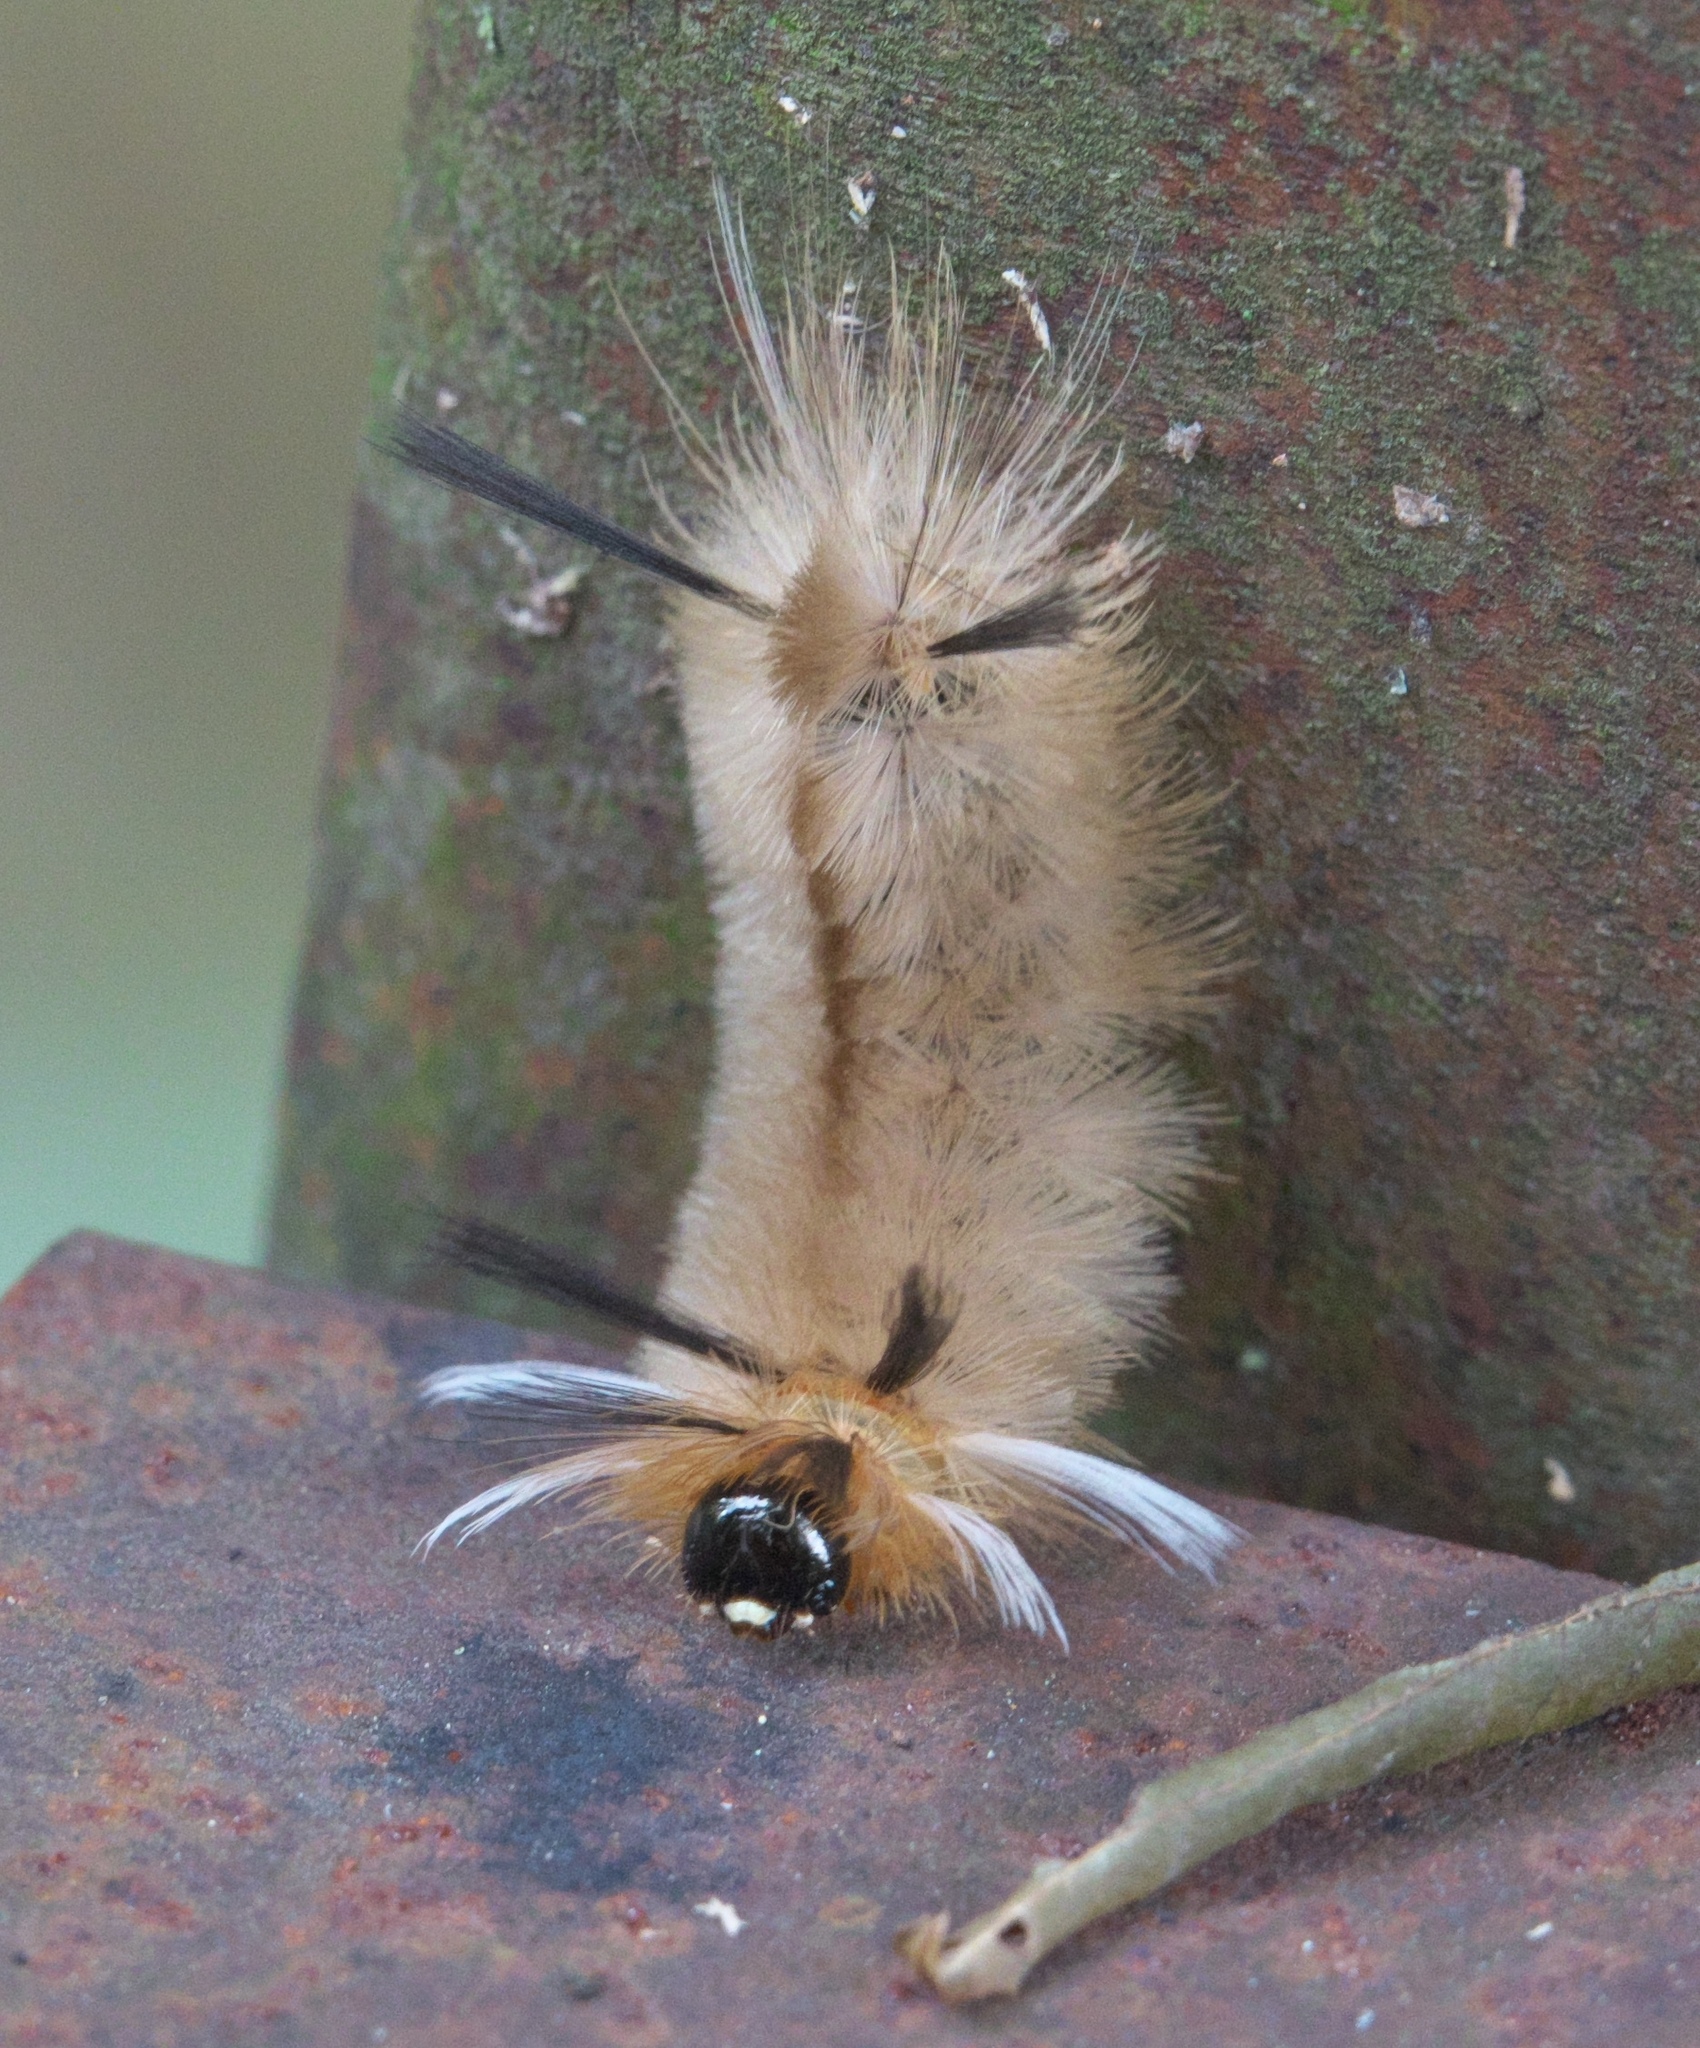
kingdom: Animalia
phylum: Arthropoda
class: Insecta
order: Lepidoptera
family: Erebidae
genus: Halysidota
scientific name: Halysidota tessellaris
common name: Banded tussock moth
